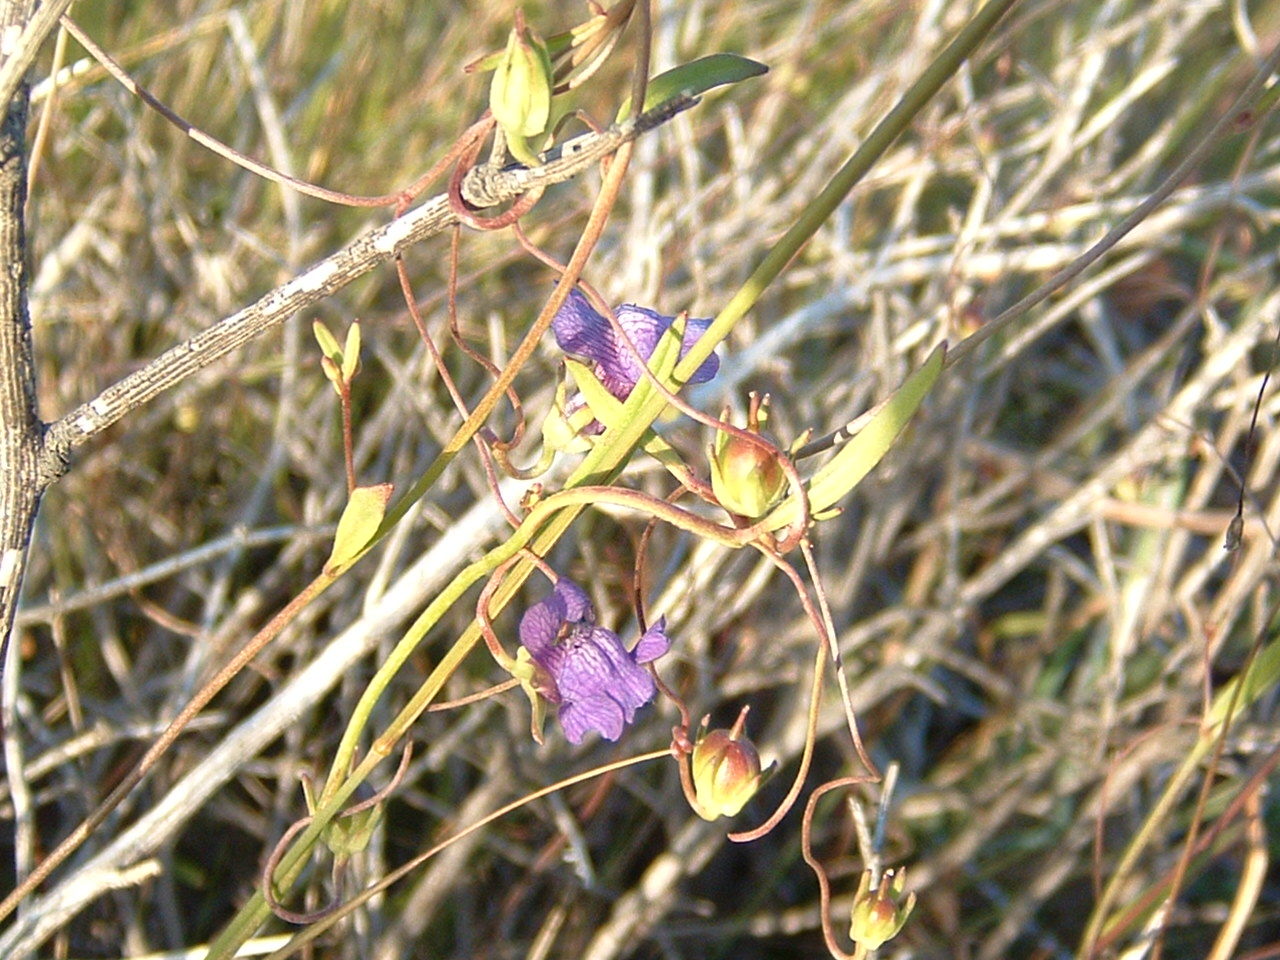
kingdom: Plantae
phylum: Tracheophyta
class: Magnoliopsida
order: Lamiales
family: Plantaginaceae
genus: Neogaerrhinum
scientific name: Neogaerrhinum strictum
